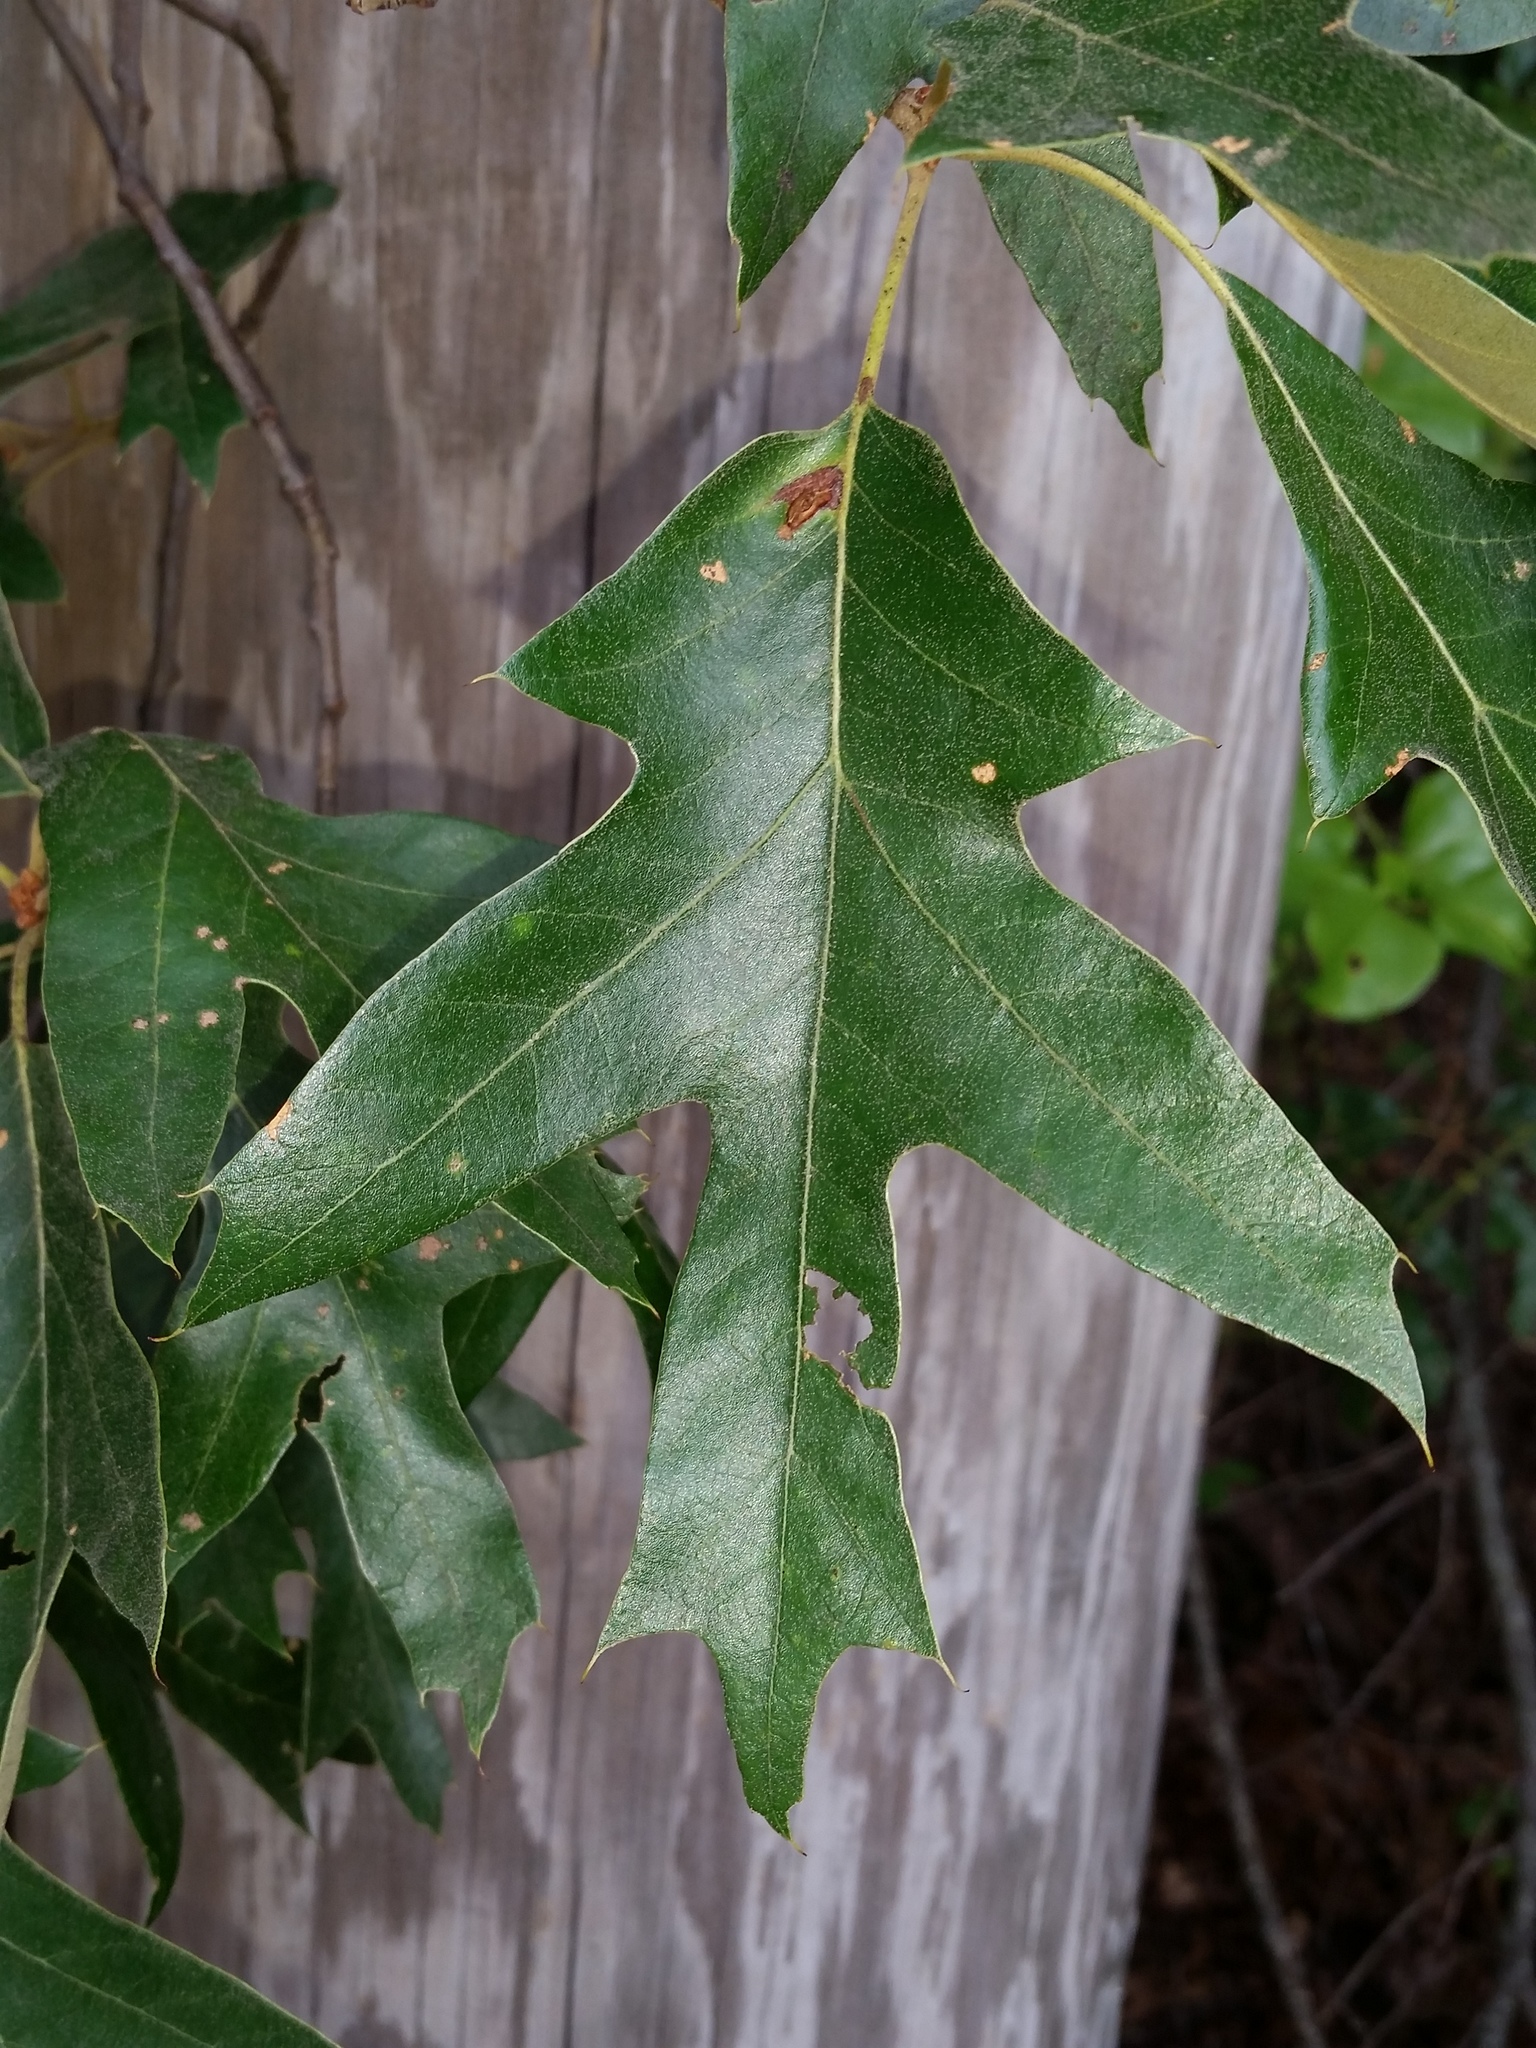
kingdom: Plantae
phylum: Tracheophyta
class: Magnoliopsida
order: Fagales
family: Fagaceae
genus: Quercus
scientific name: Quercus falcata
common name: Southern red oak
